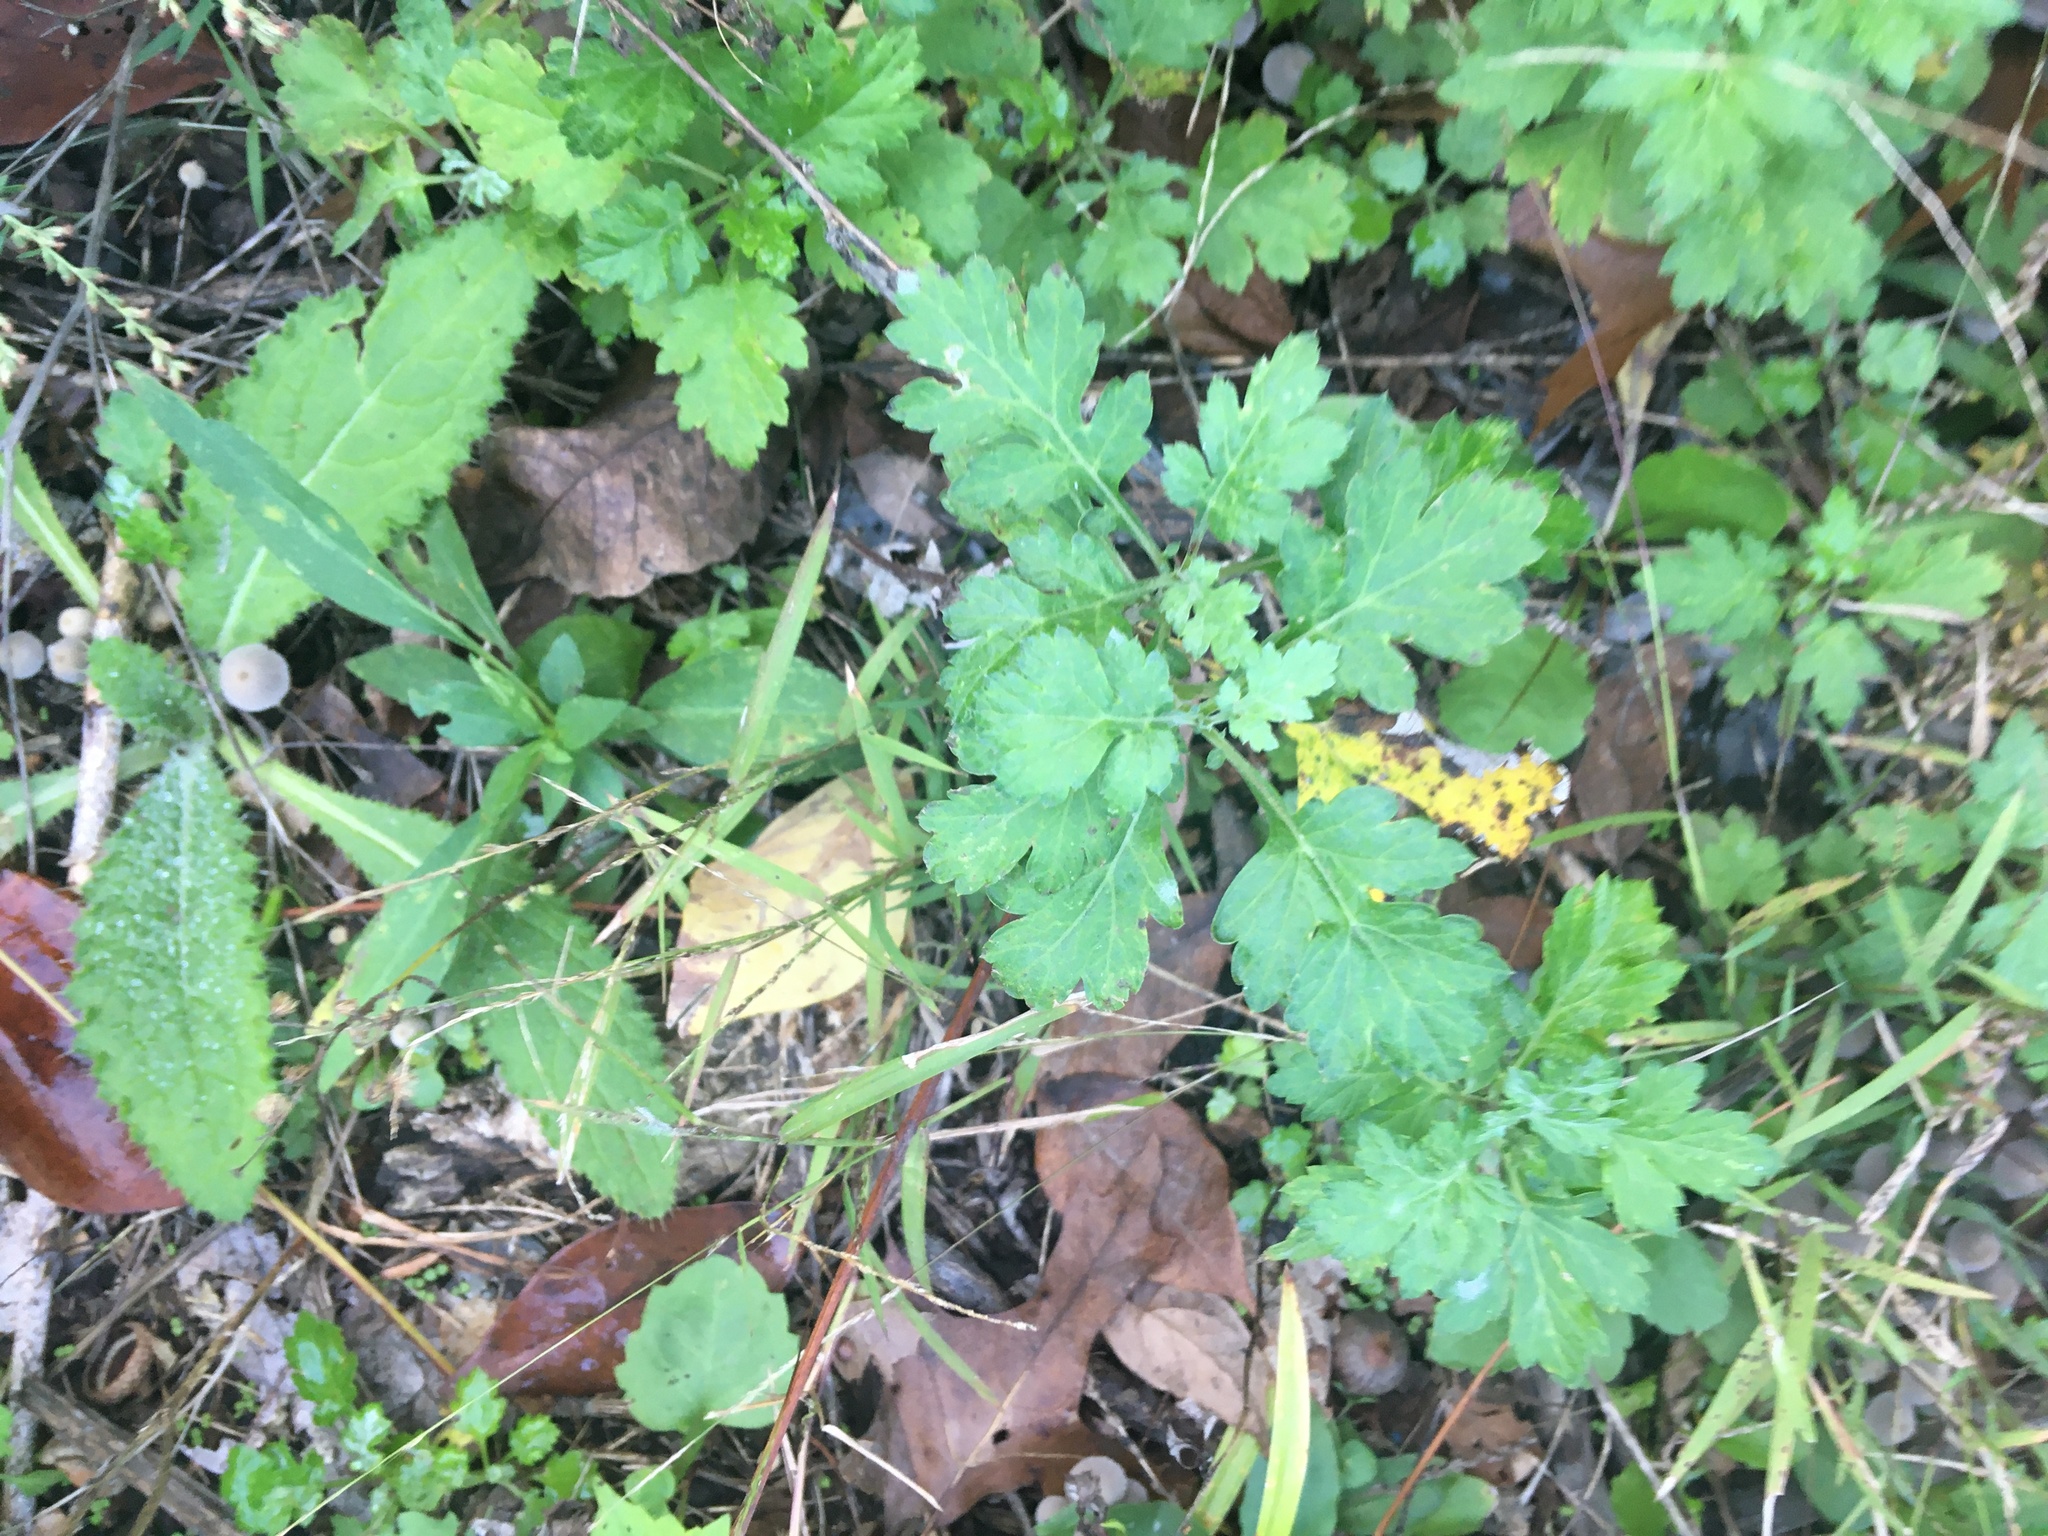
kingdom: Plantae
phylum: Tracheophyta
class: Magnoliopsida
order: Asterales
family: Asteraceae
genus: Artemisia
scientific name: Artemisia vulgaris
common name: Mugwort
